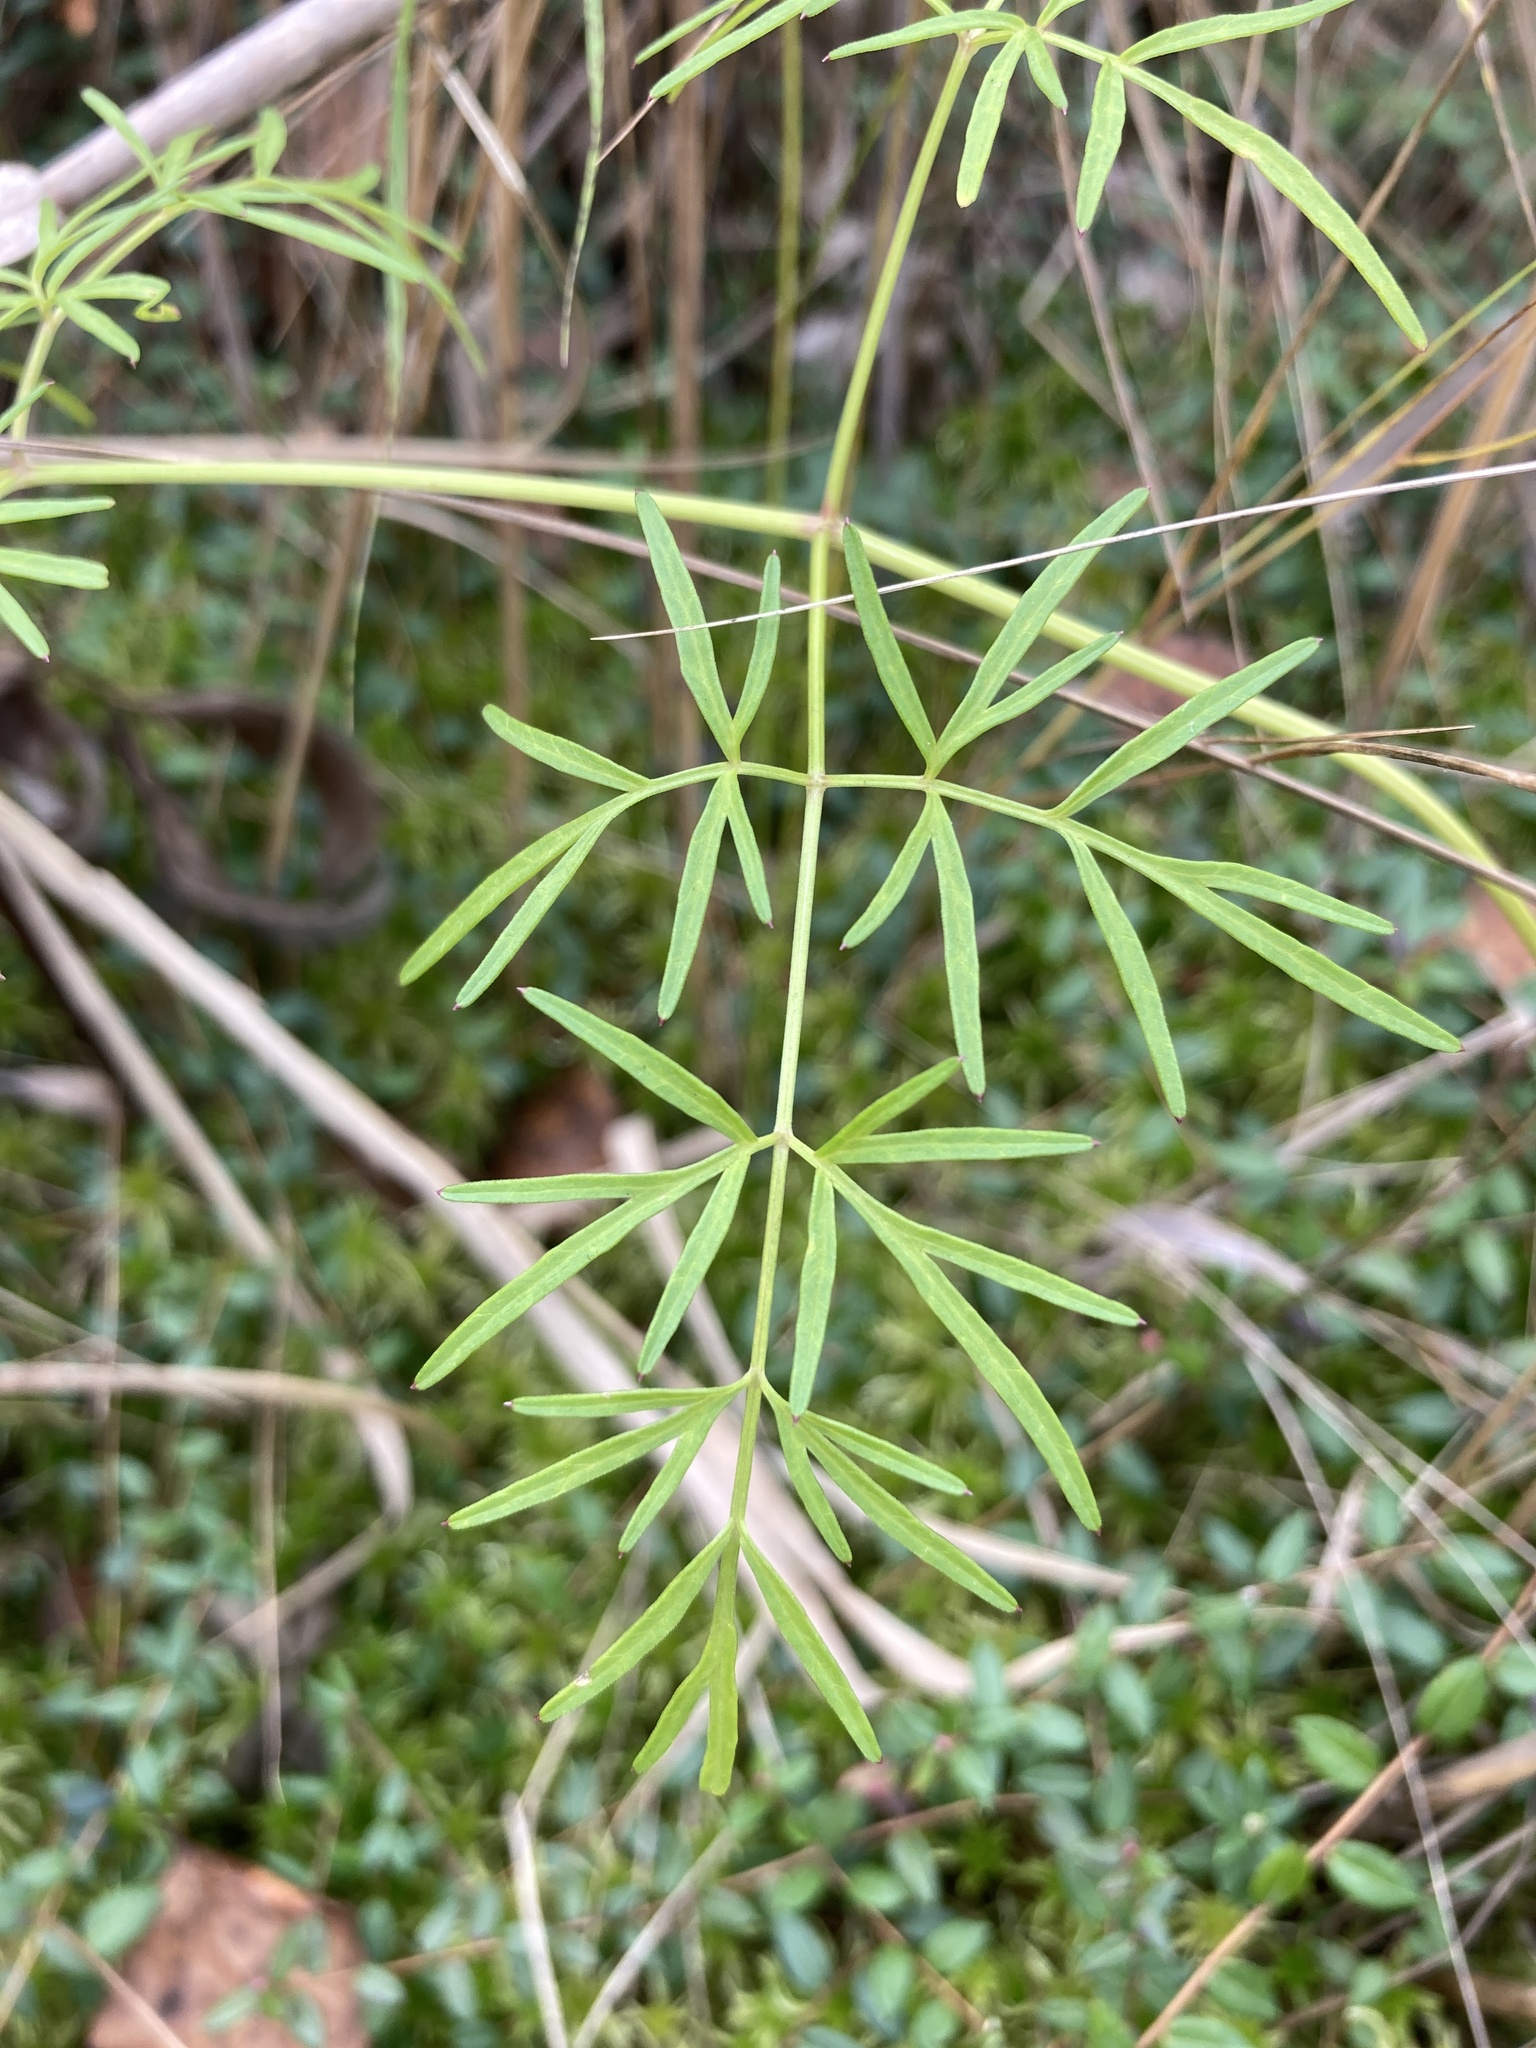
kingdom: Plantae
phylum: Tracheophyta
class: Magnoliopsida
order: Apiales
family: Apiaceae
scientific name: Apiaceae
